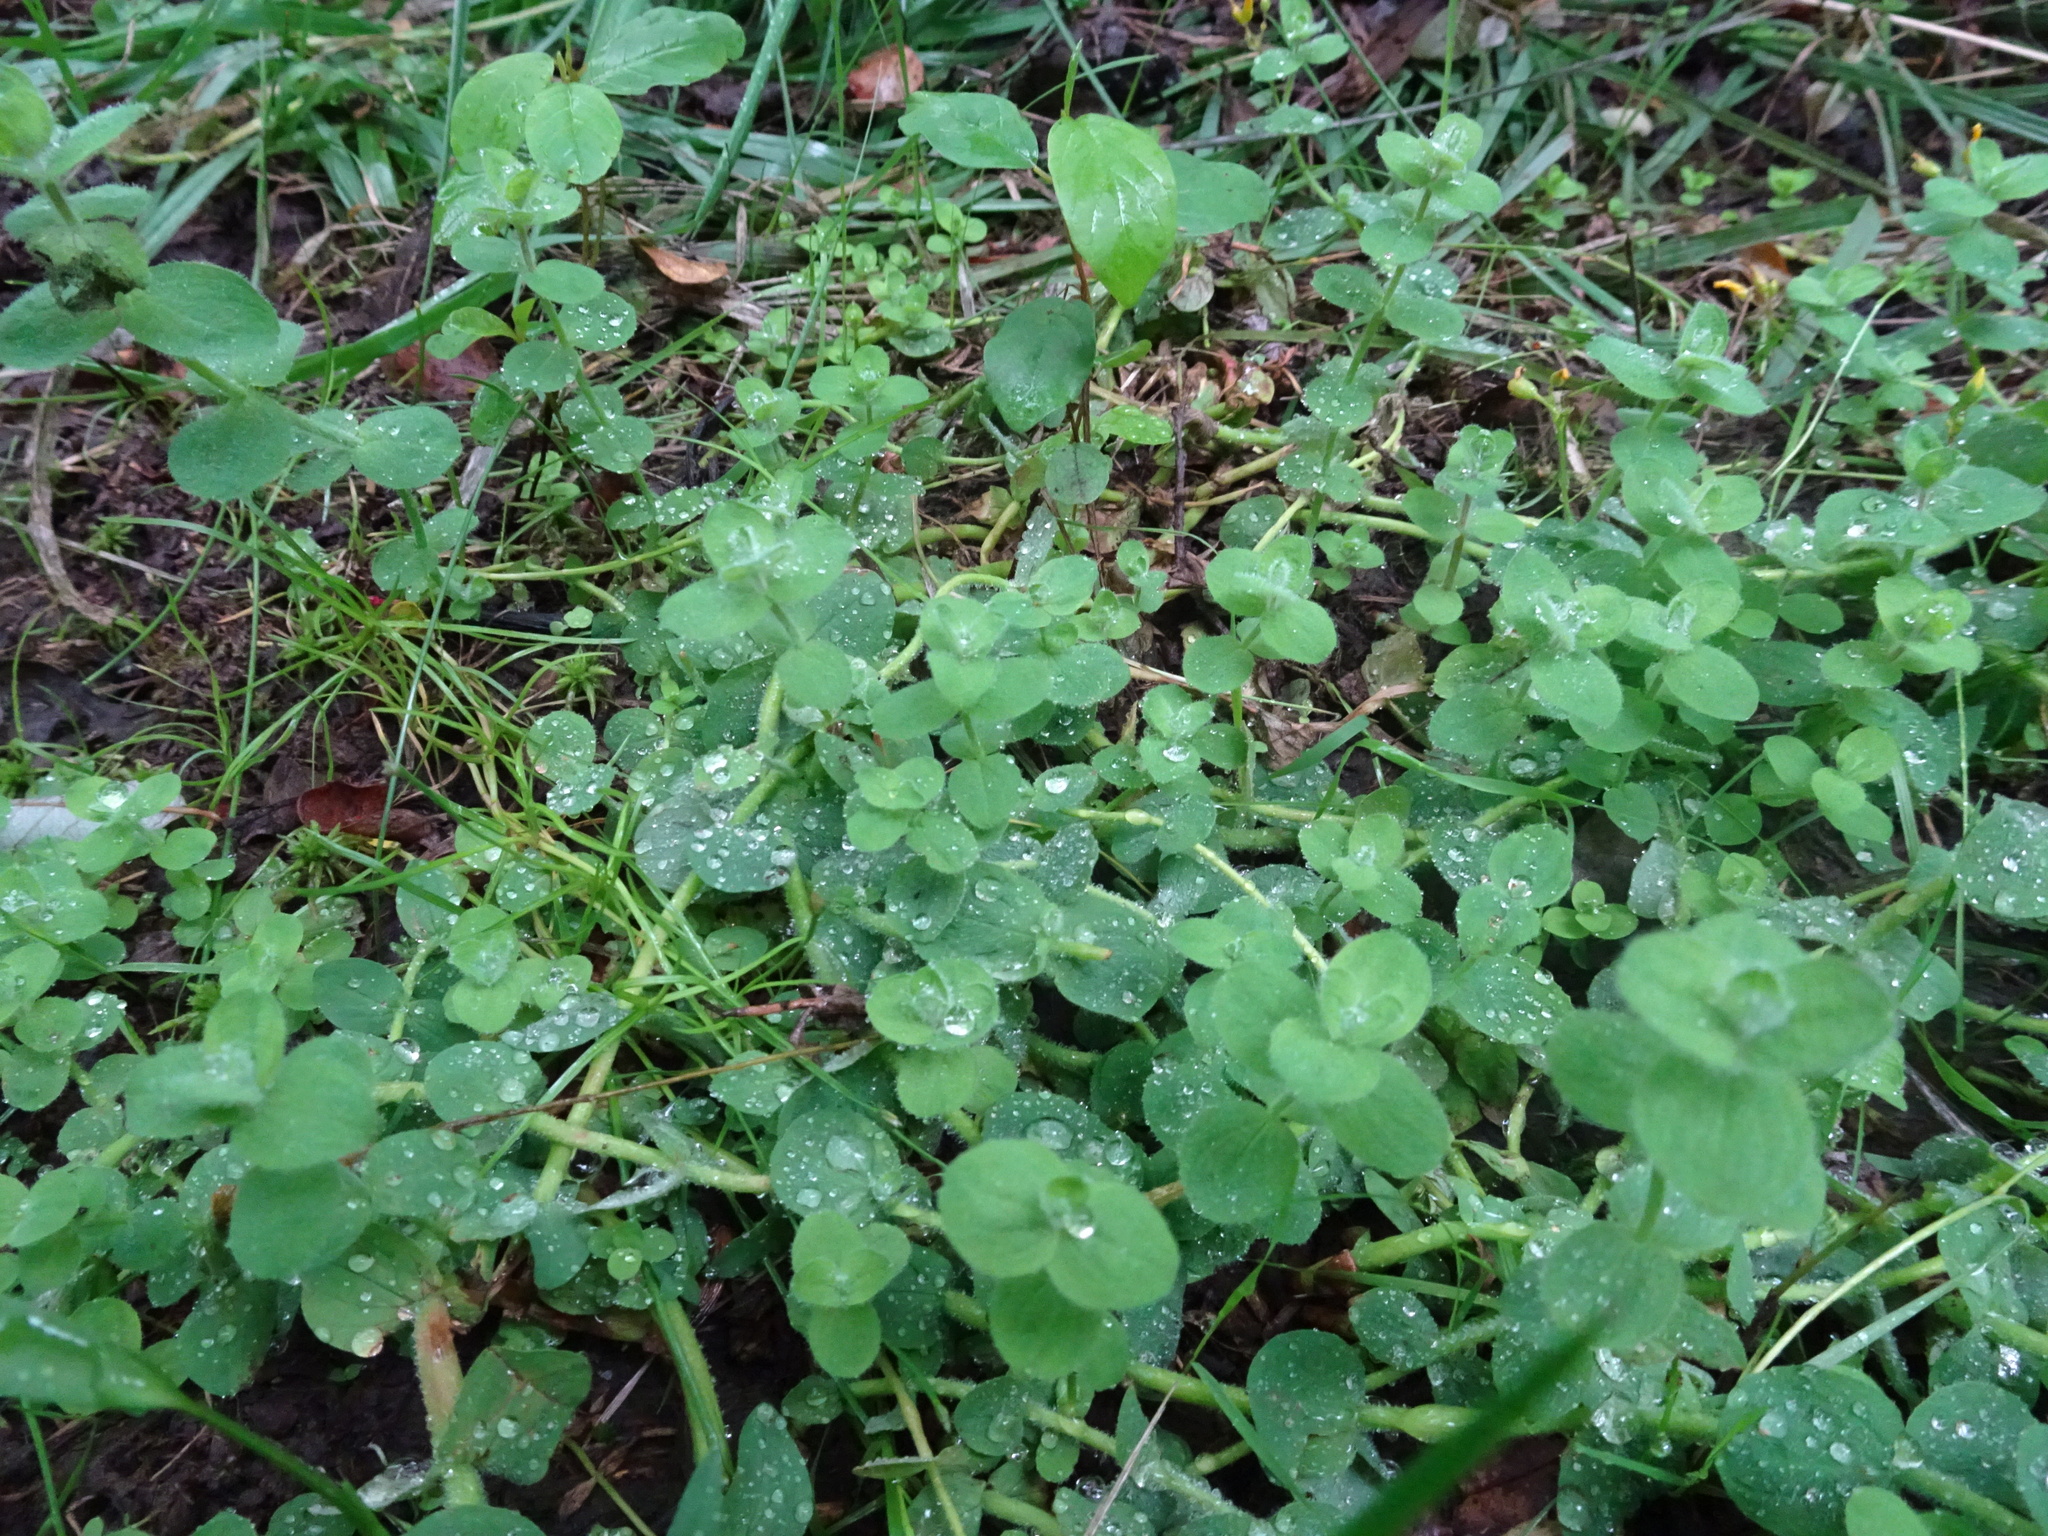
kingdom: Plantae
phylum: Tracheophyta
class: Magnoliopsida
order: Malpighiales
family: Hypericaceae
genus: Hypericum
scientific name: Hypericum elodes
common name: Marsh st. john's-wort
